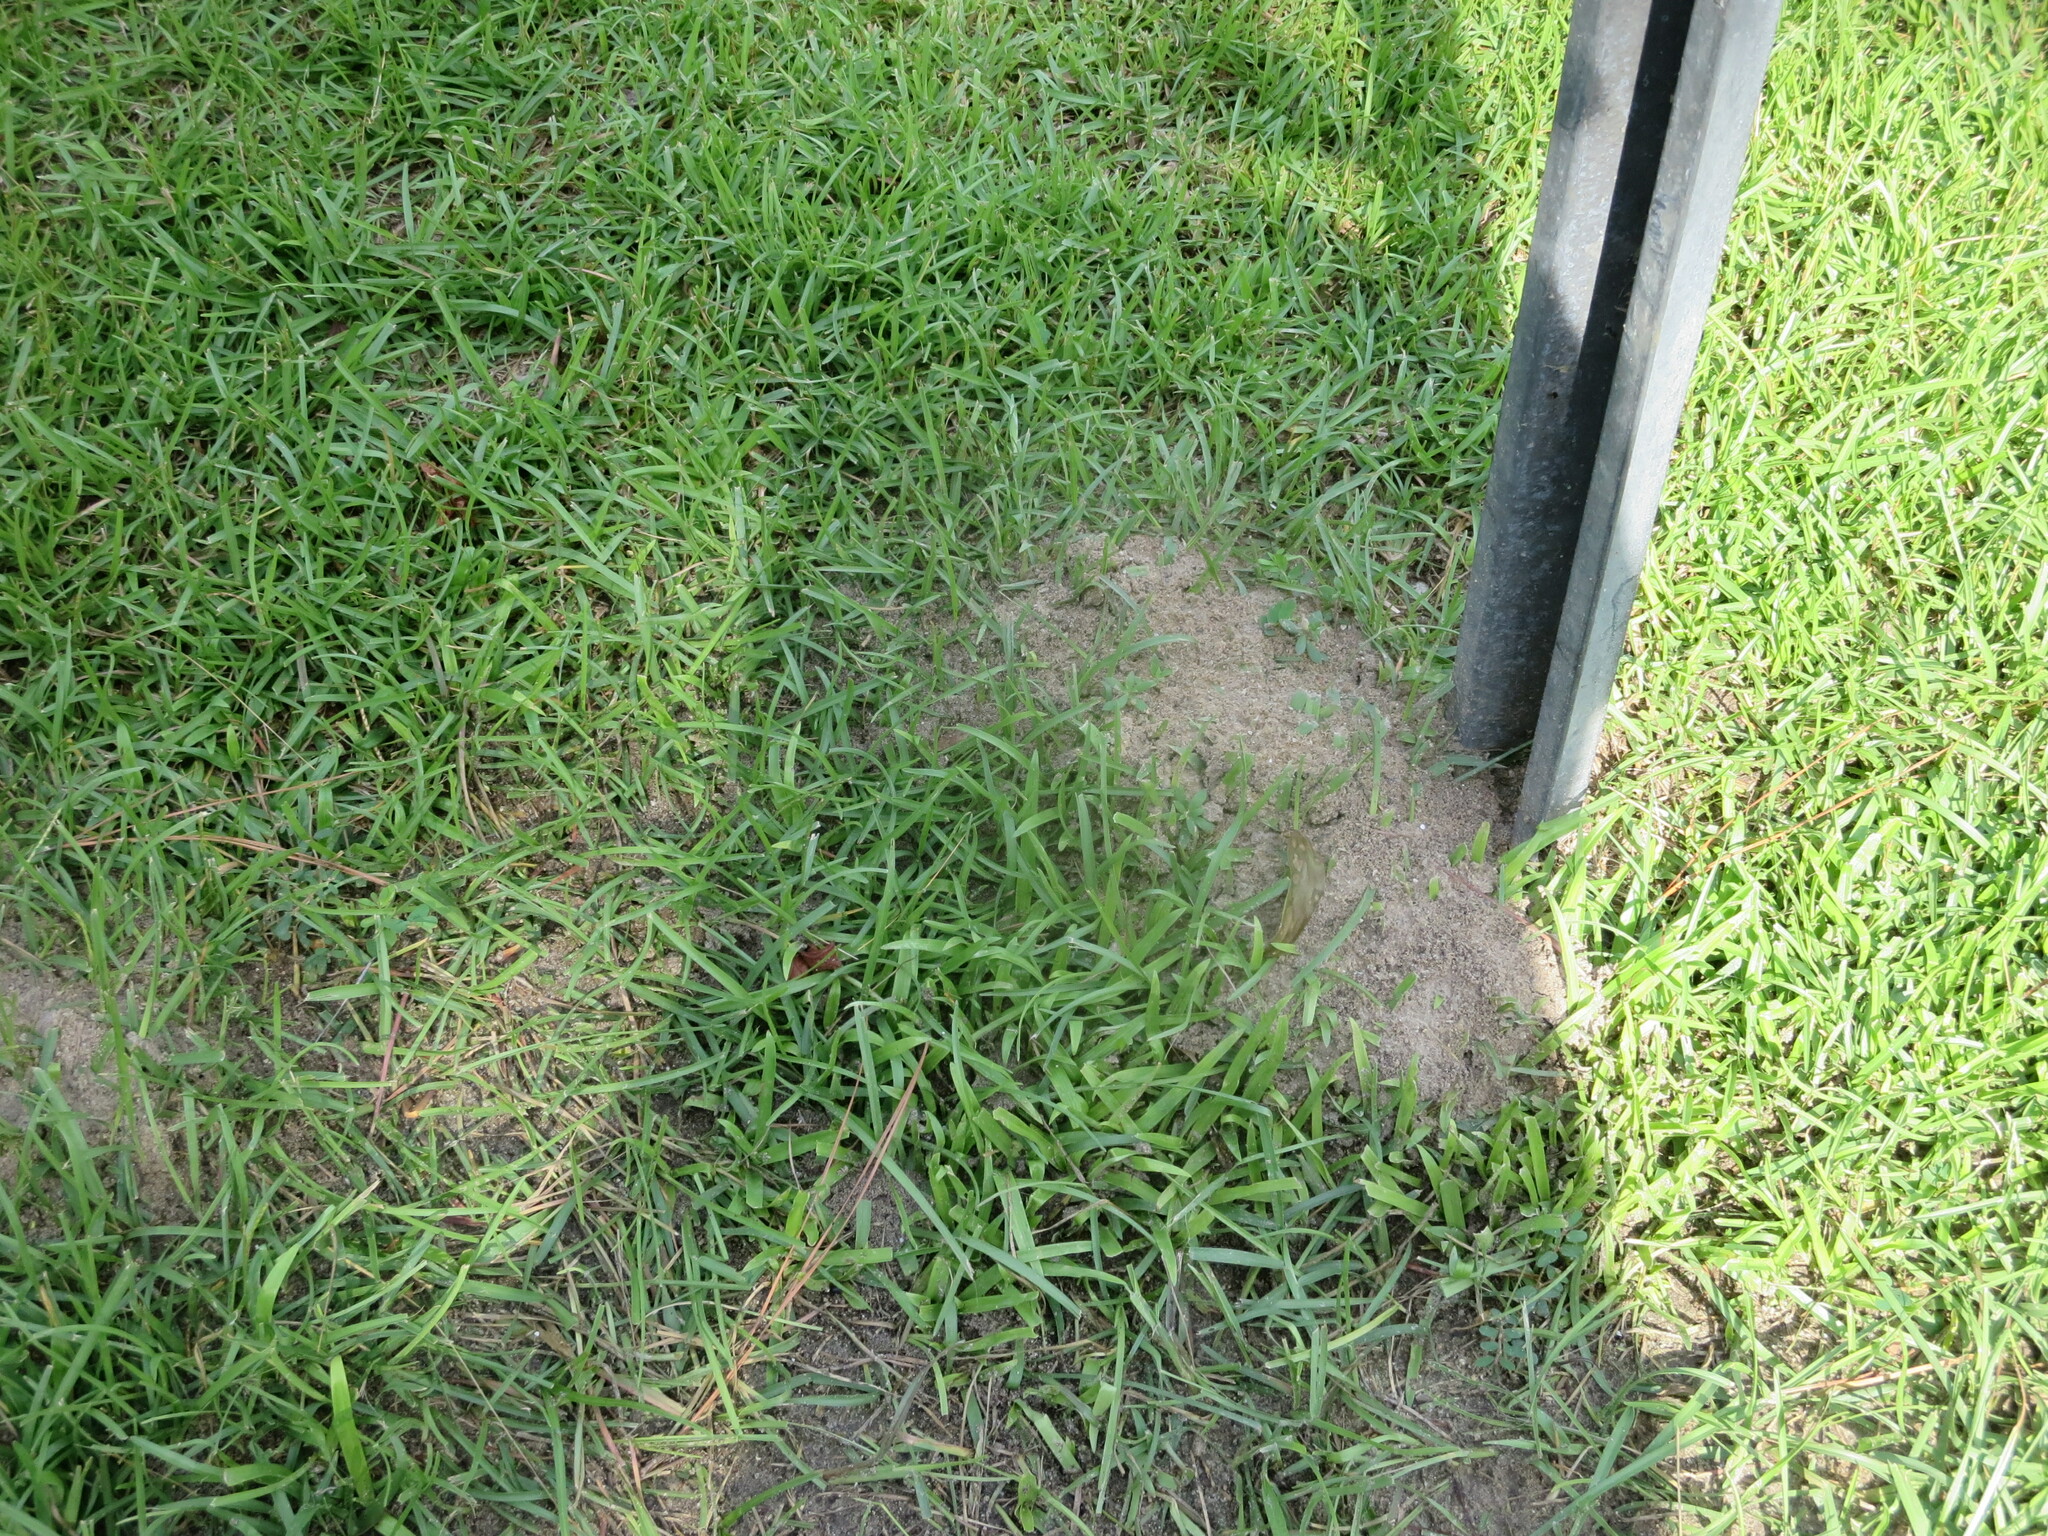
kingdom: Animalia
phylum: Arthropoda
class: Insecta
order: Hymenoptera
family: Formicidae
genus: Solenopsis
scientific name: Solenopsis invicta
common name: Red imported fire ant
